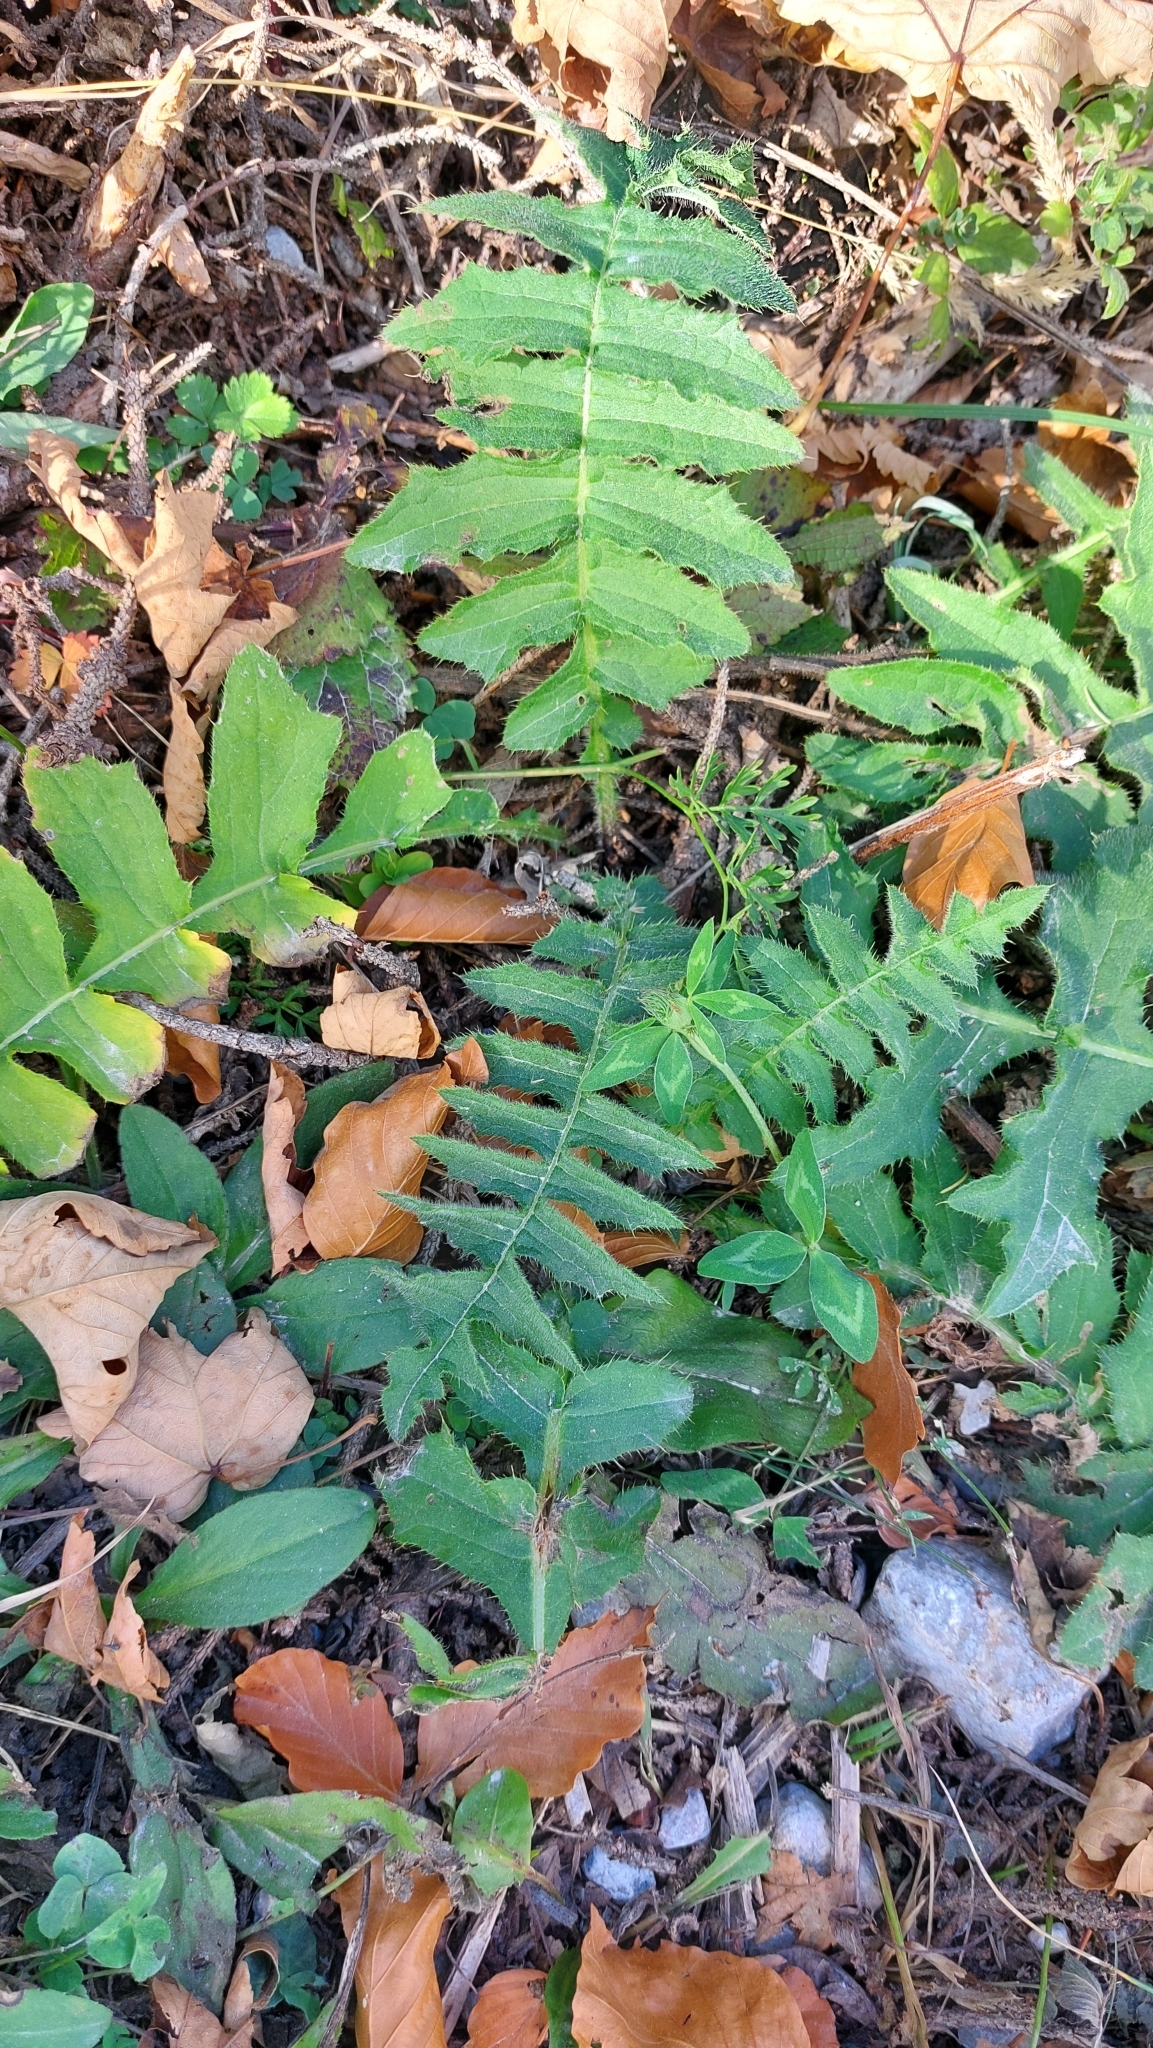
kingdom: Plantae
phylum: Tracheophyta
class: Magnoliopsida
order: Asterales
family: Asteraceae
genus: Cirsium
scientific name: Cirsium erisithales
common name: Yellow thistle
